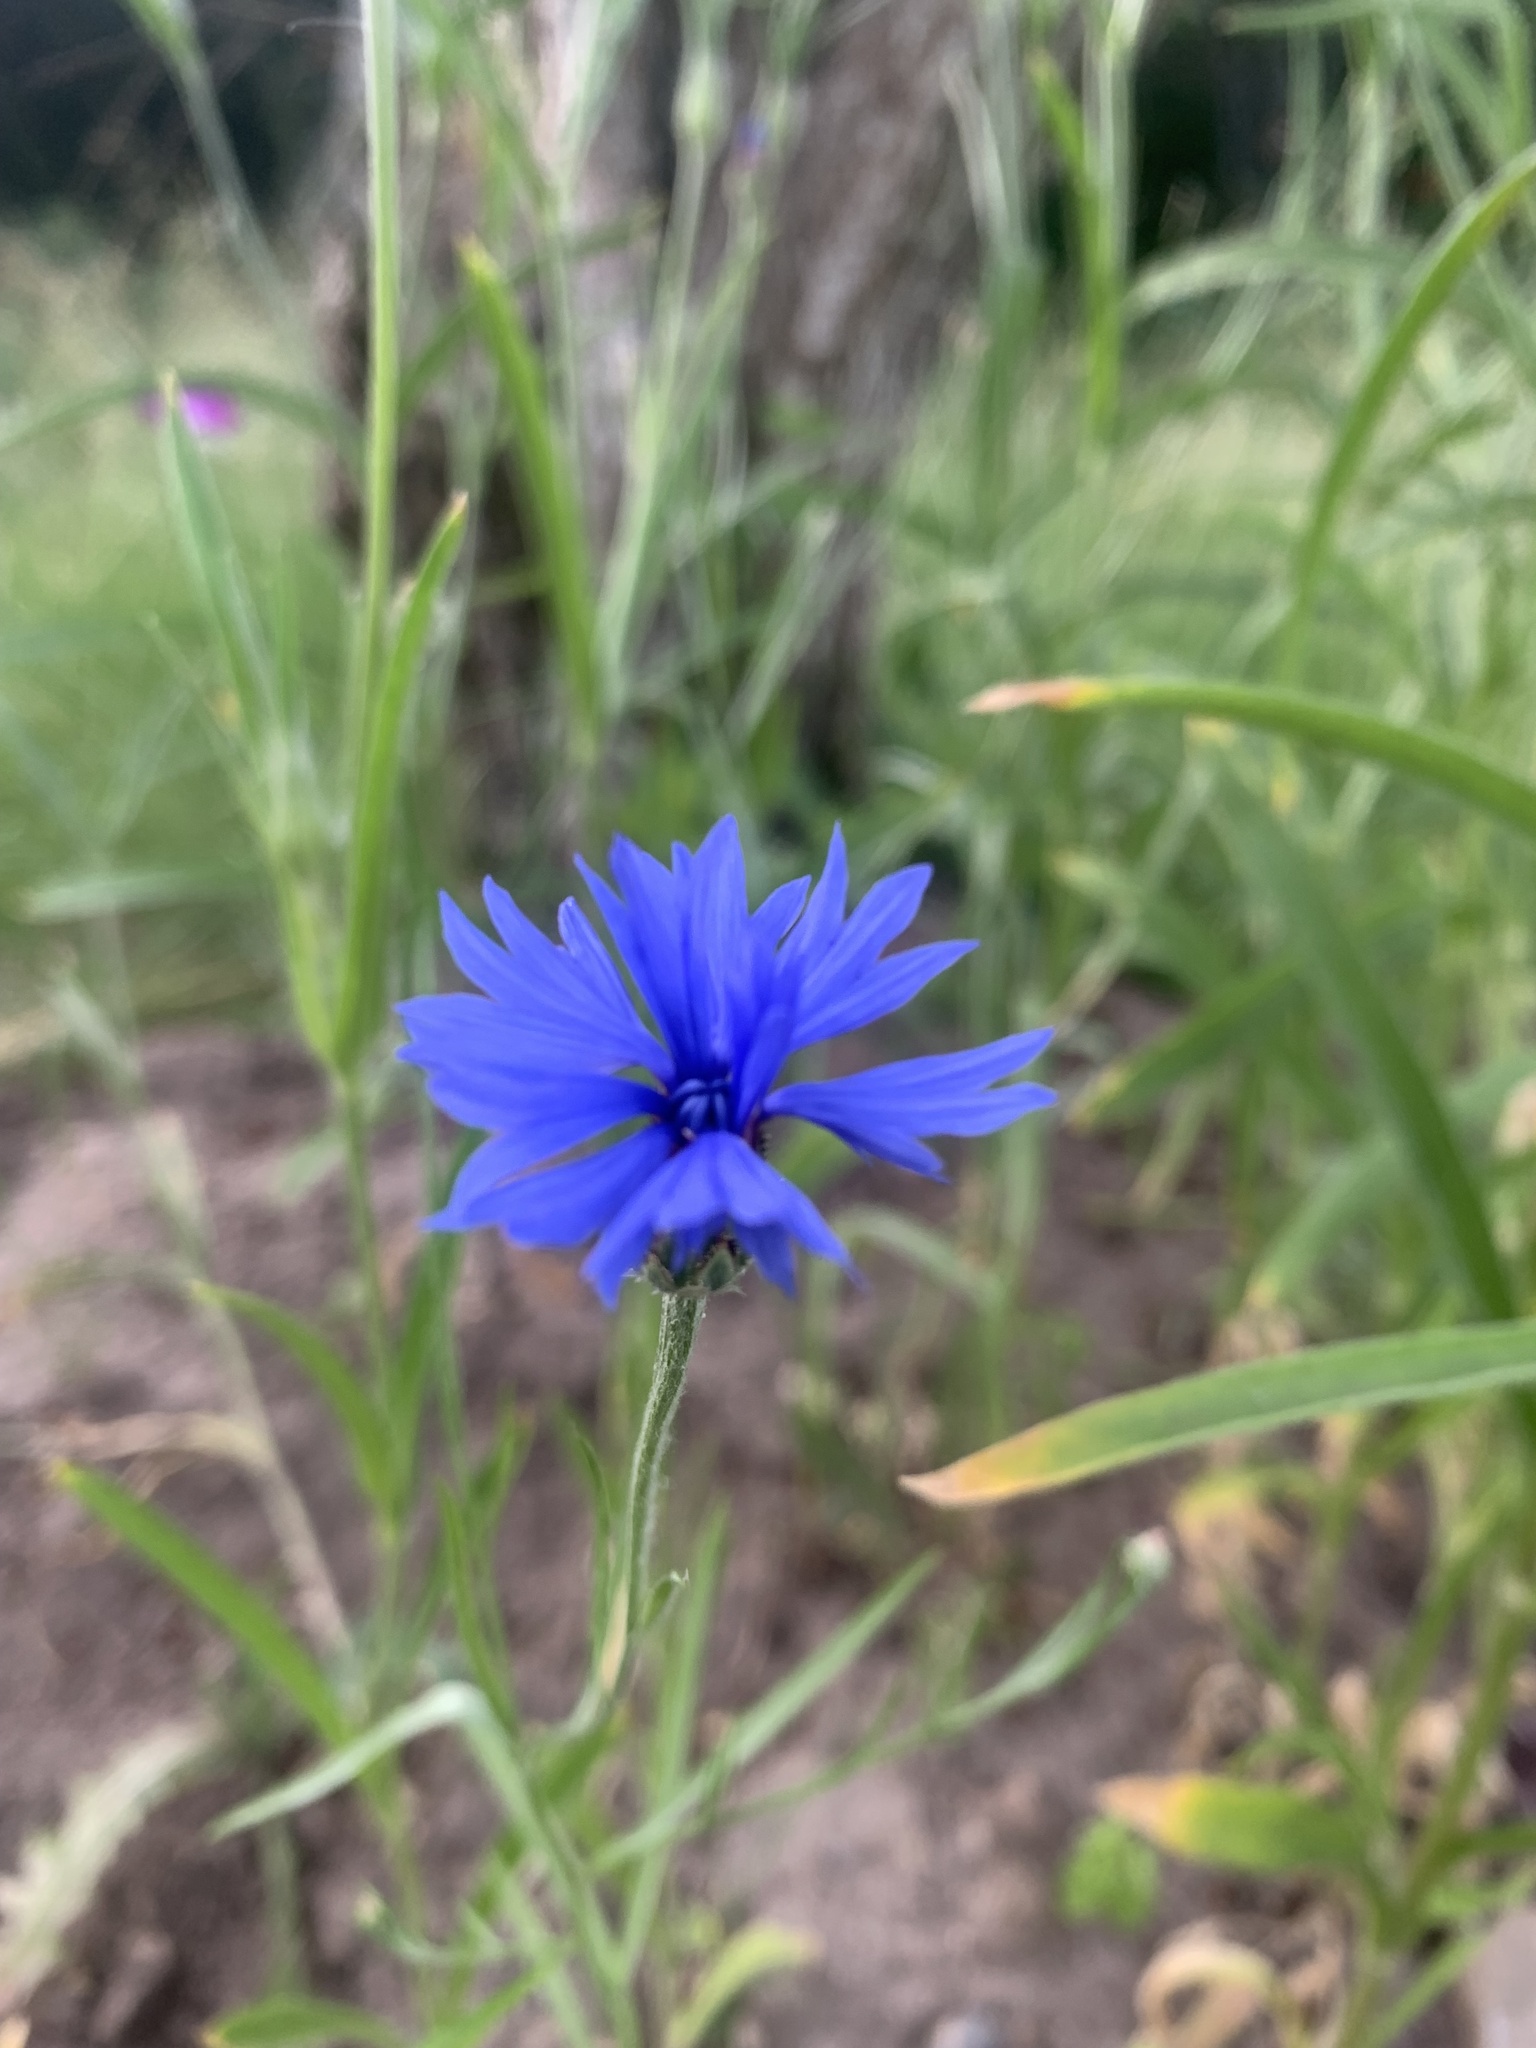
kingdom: Plantae
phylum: Tracheophyta
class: Magnoliopsida
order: Asterales
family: Asteraceae
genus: Centaurea
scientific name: Centaurea cyanus
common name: Cornflower
